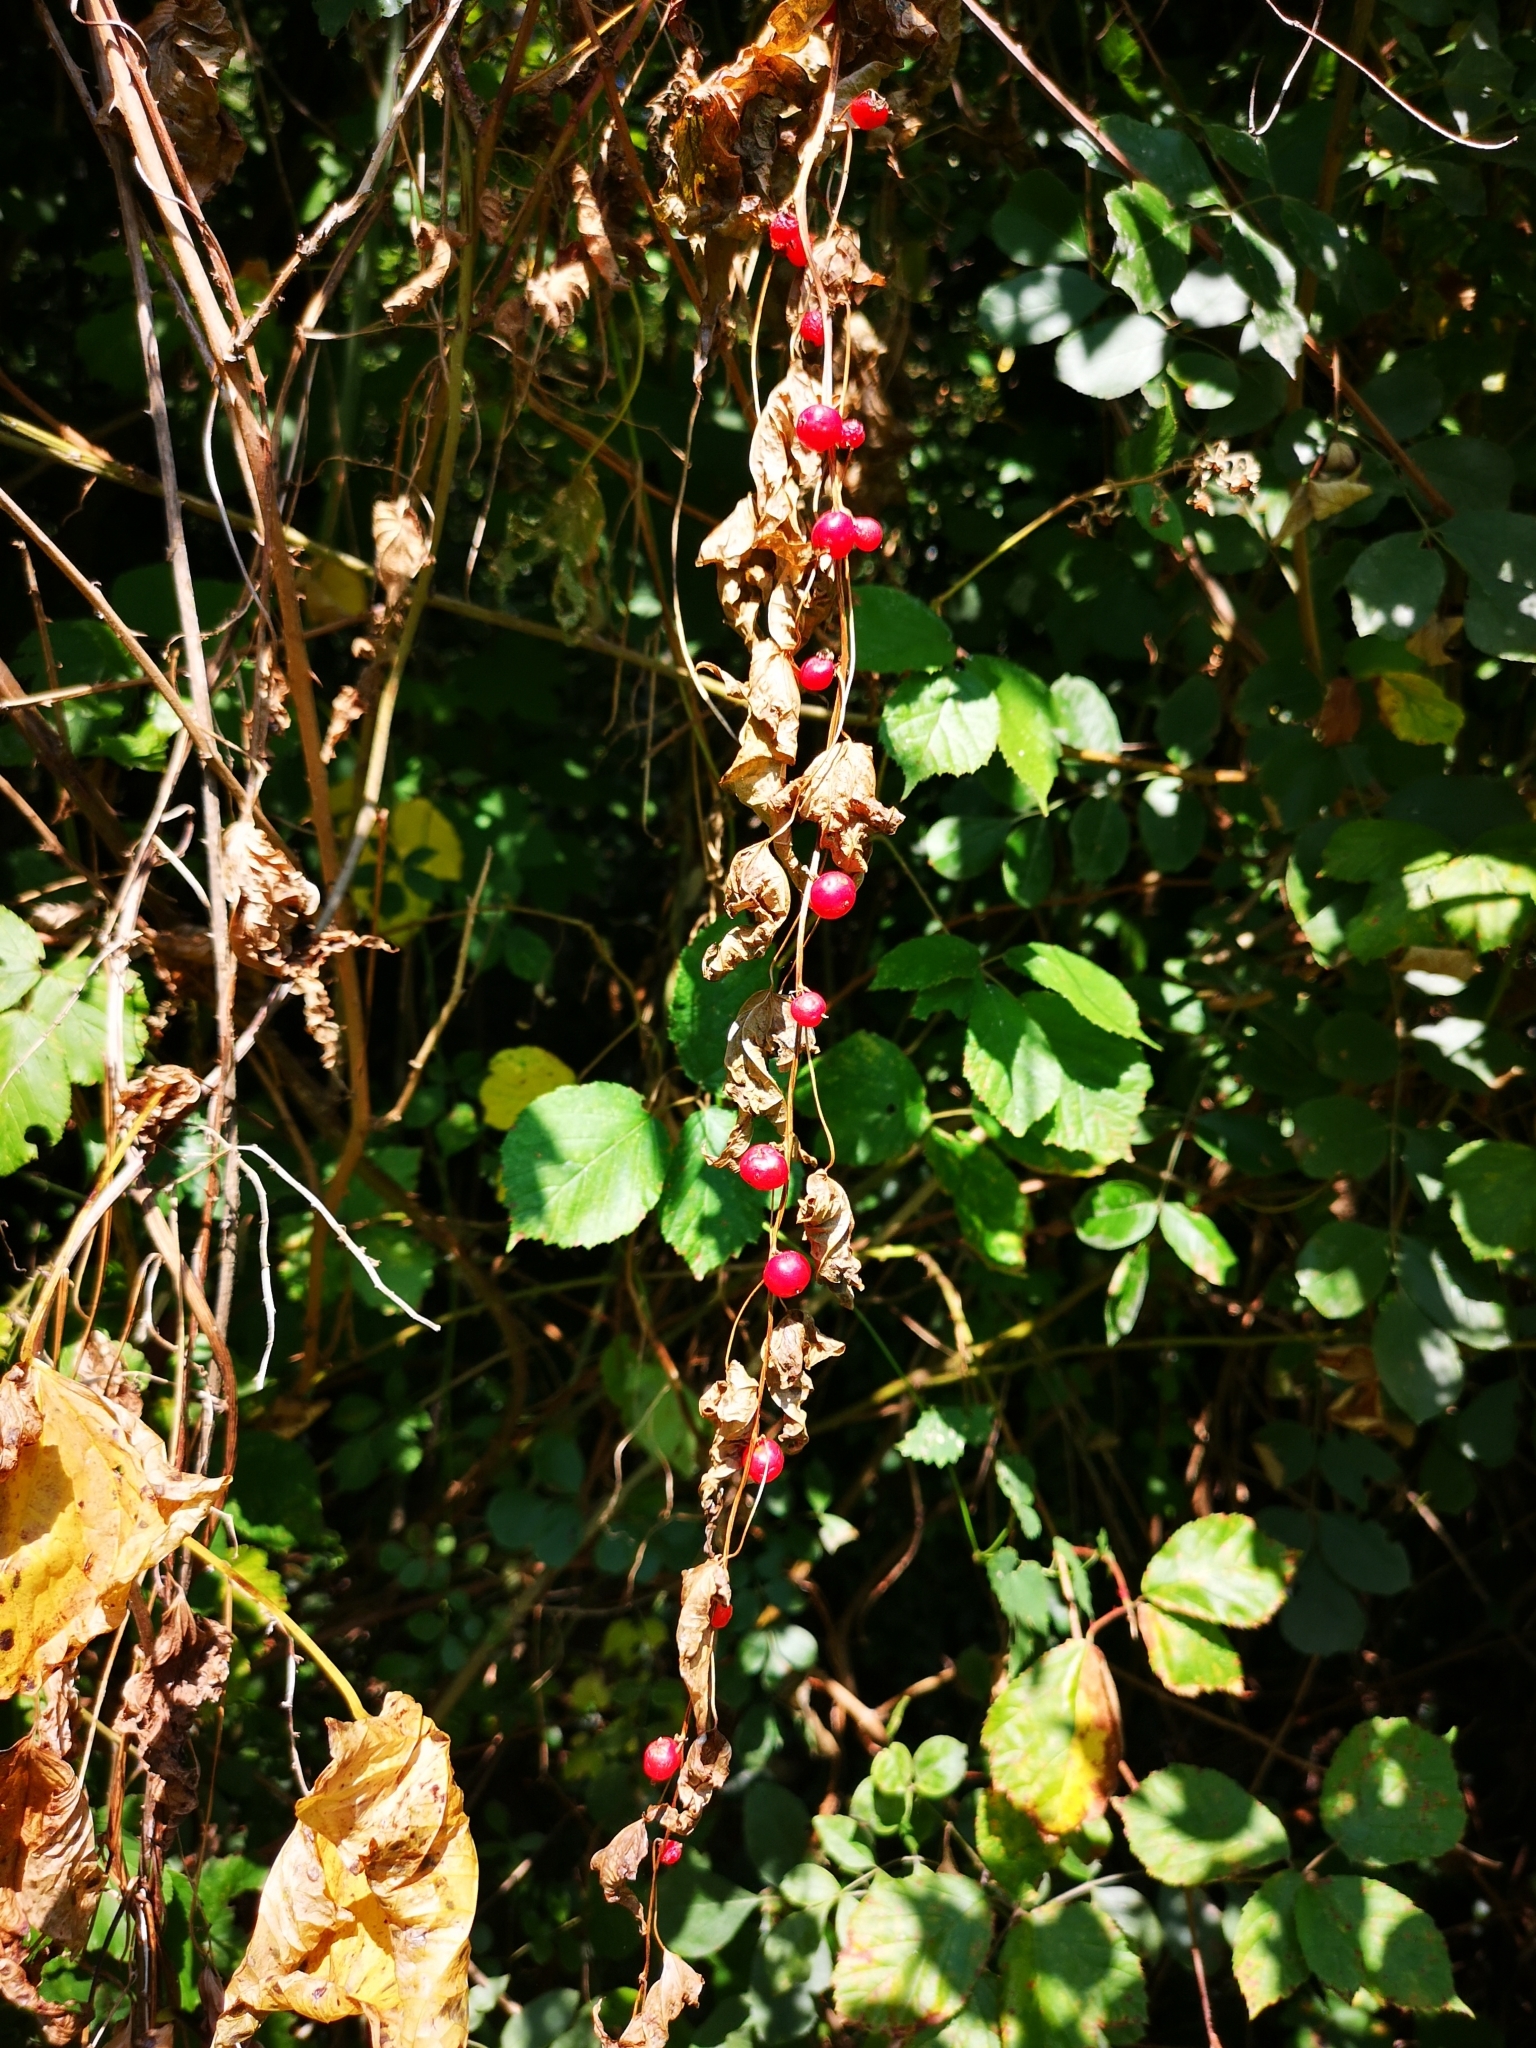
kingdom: Plantae
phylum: Tracheophyta
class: Liliopsida
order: Dioscoreales
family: Dioscoreaceae
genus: Dioscorea
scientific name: Dioscorea communis
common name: Black-bindweed
